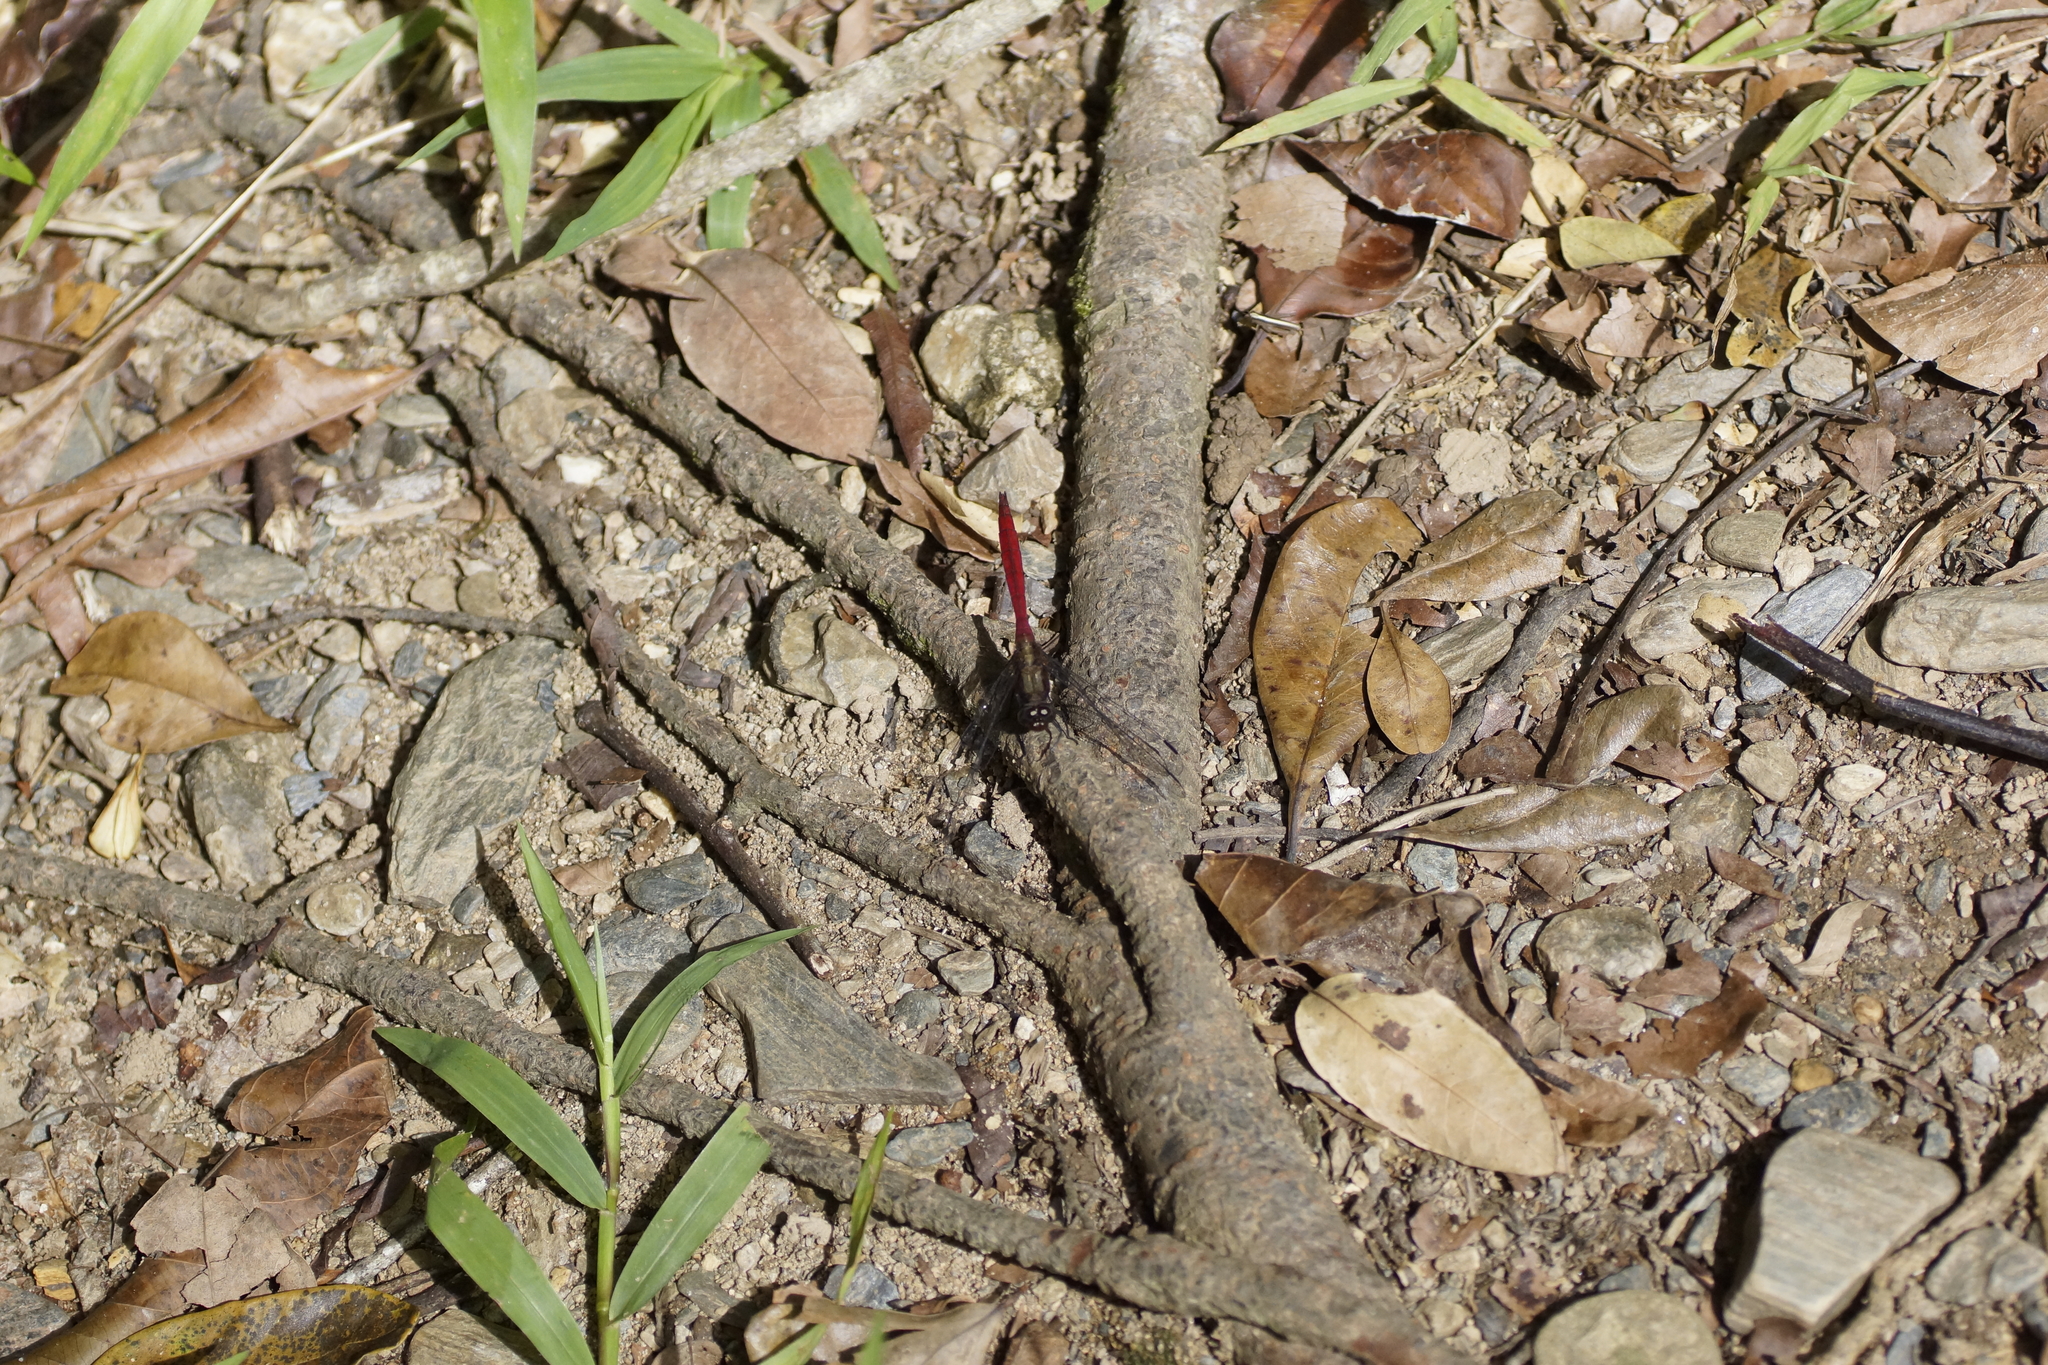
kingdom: Animalia
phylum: Arthropoda
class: Insecta
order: Odonata
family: Libellulidae
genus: Orthetrum
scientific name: Orthetrum villosovittatum
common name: Firery skimmer
